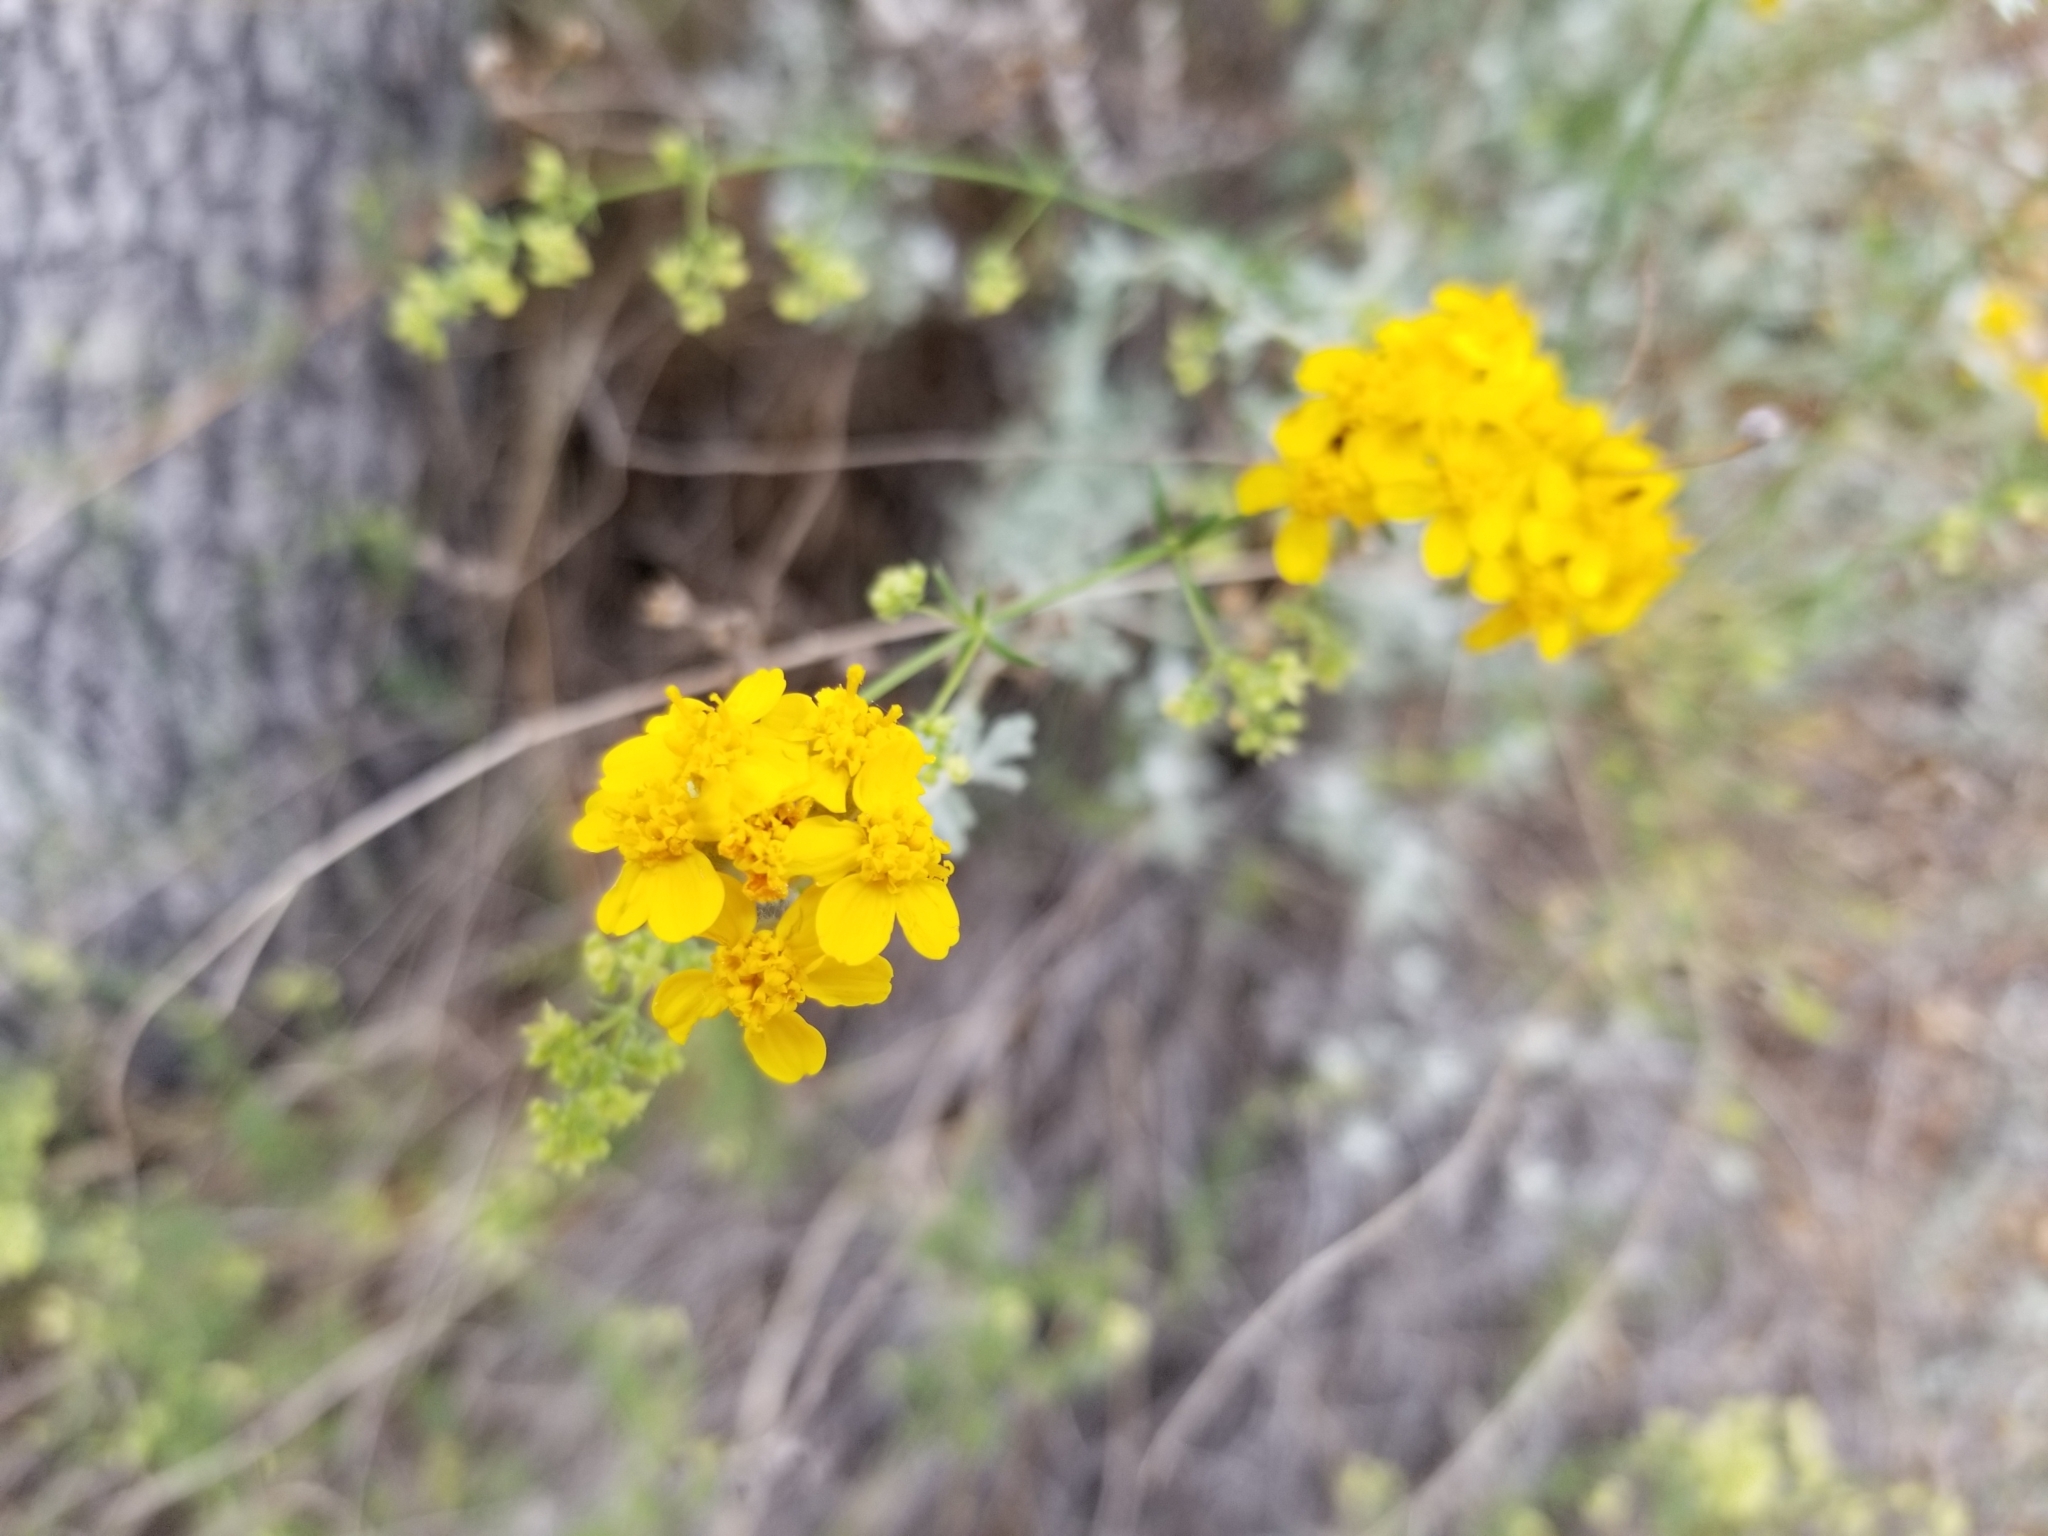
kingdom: Plantae
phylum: Tracheophyta
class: Magnoliopsida
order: Asterales
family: Asteraceae
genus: Eriophyllum
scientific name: Eriophyllum confertiflorum
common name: Golden-yarrow
